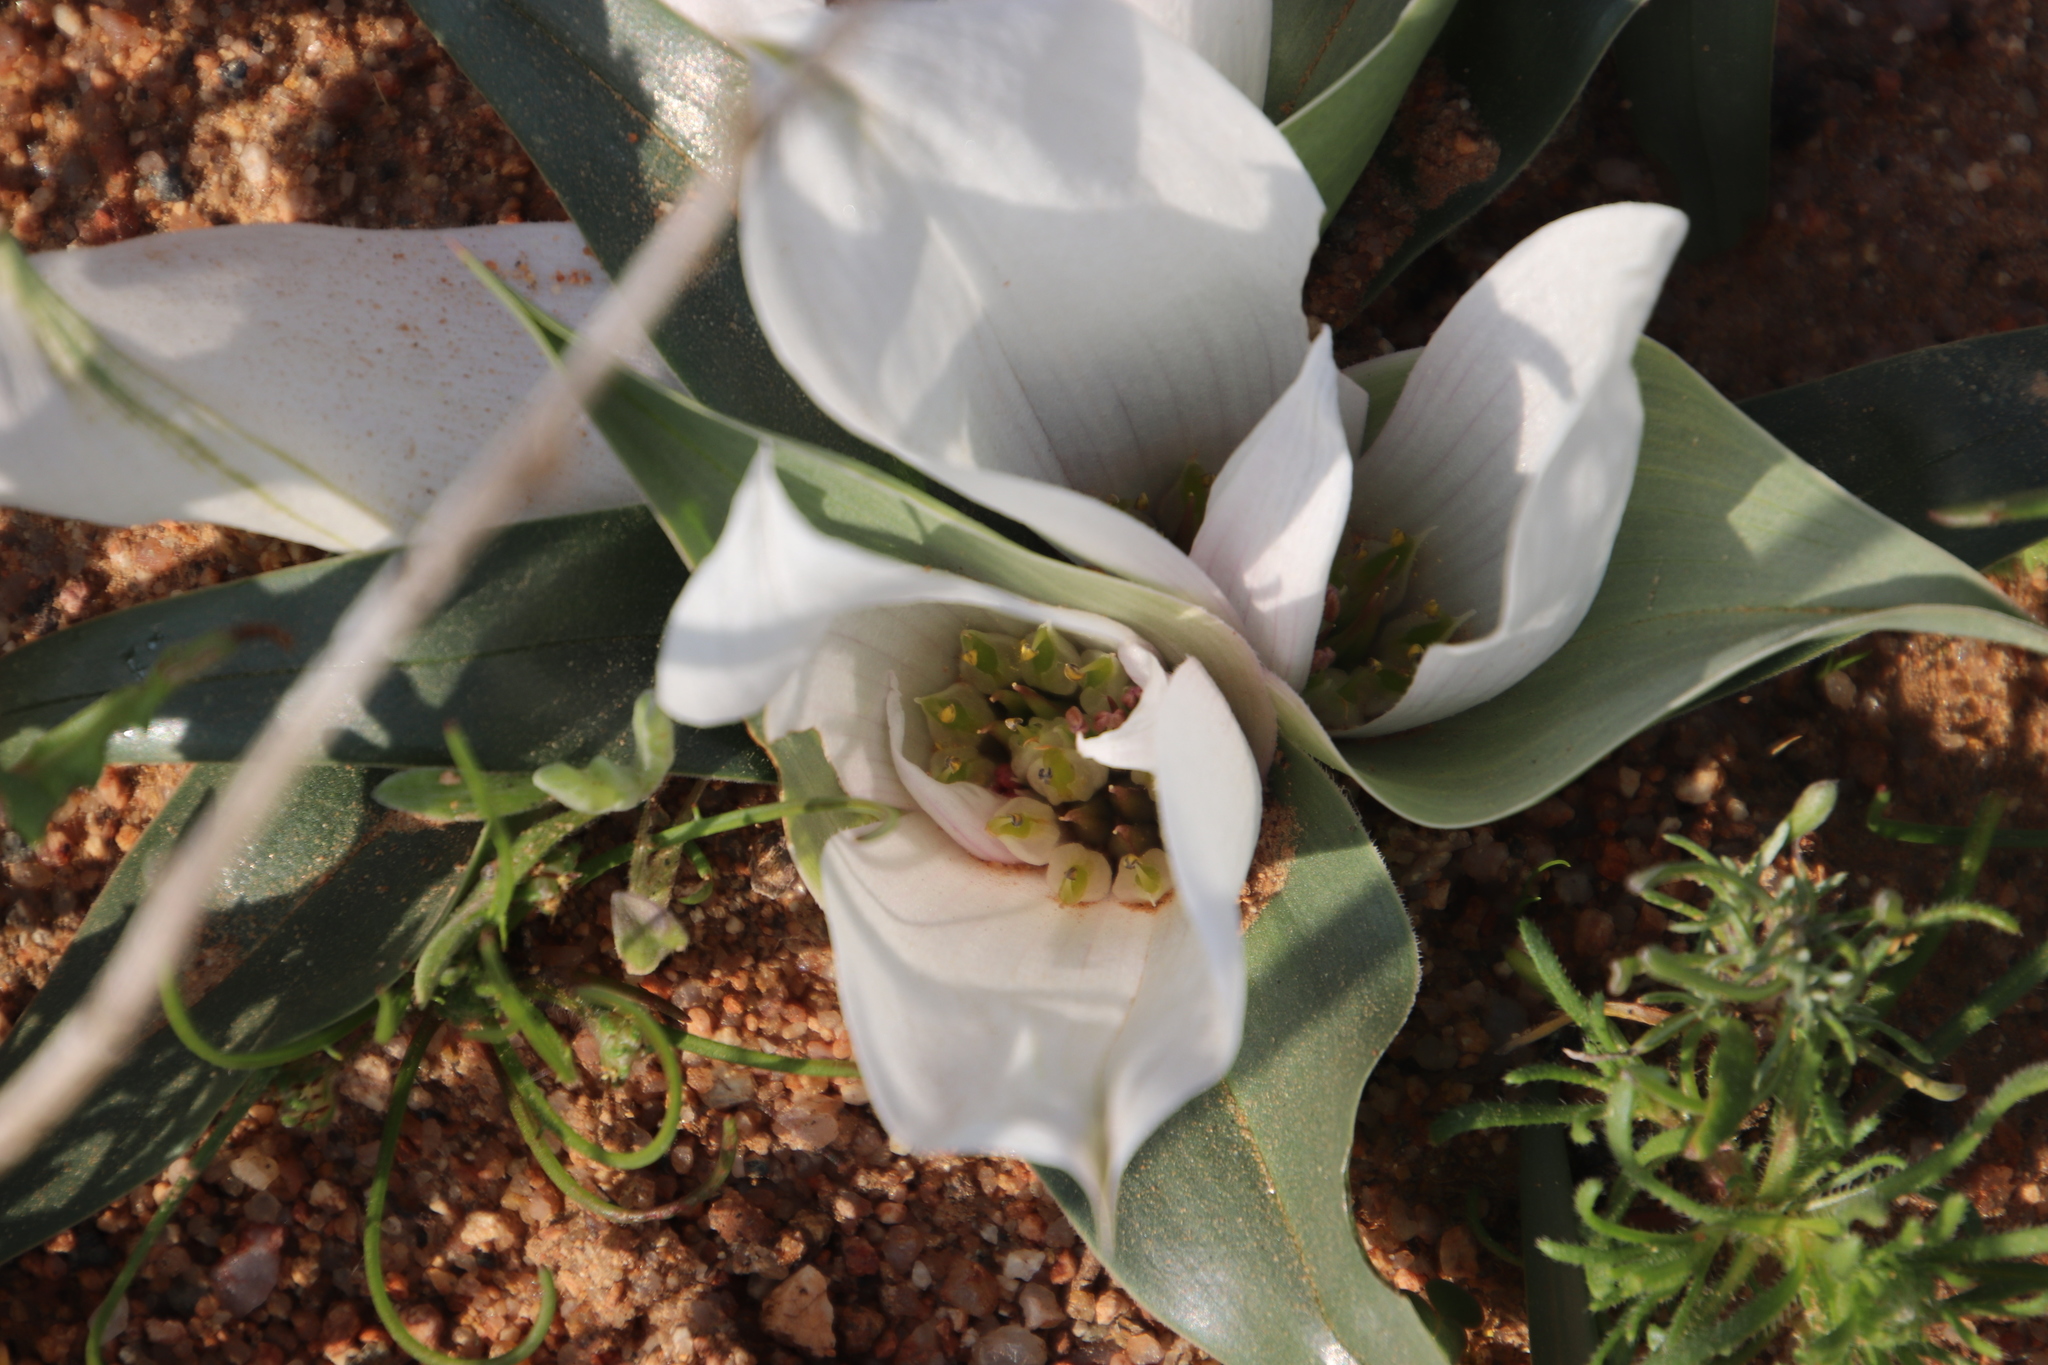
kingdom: Plantae
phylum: Tracheophyta
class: Liliopsida
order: Liliales
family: Colchicaceae
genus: Colchicum
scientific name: Colchicum capense
